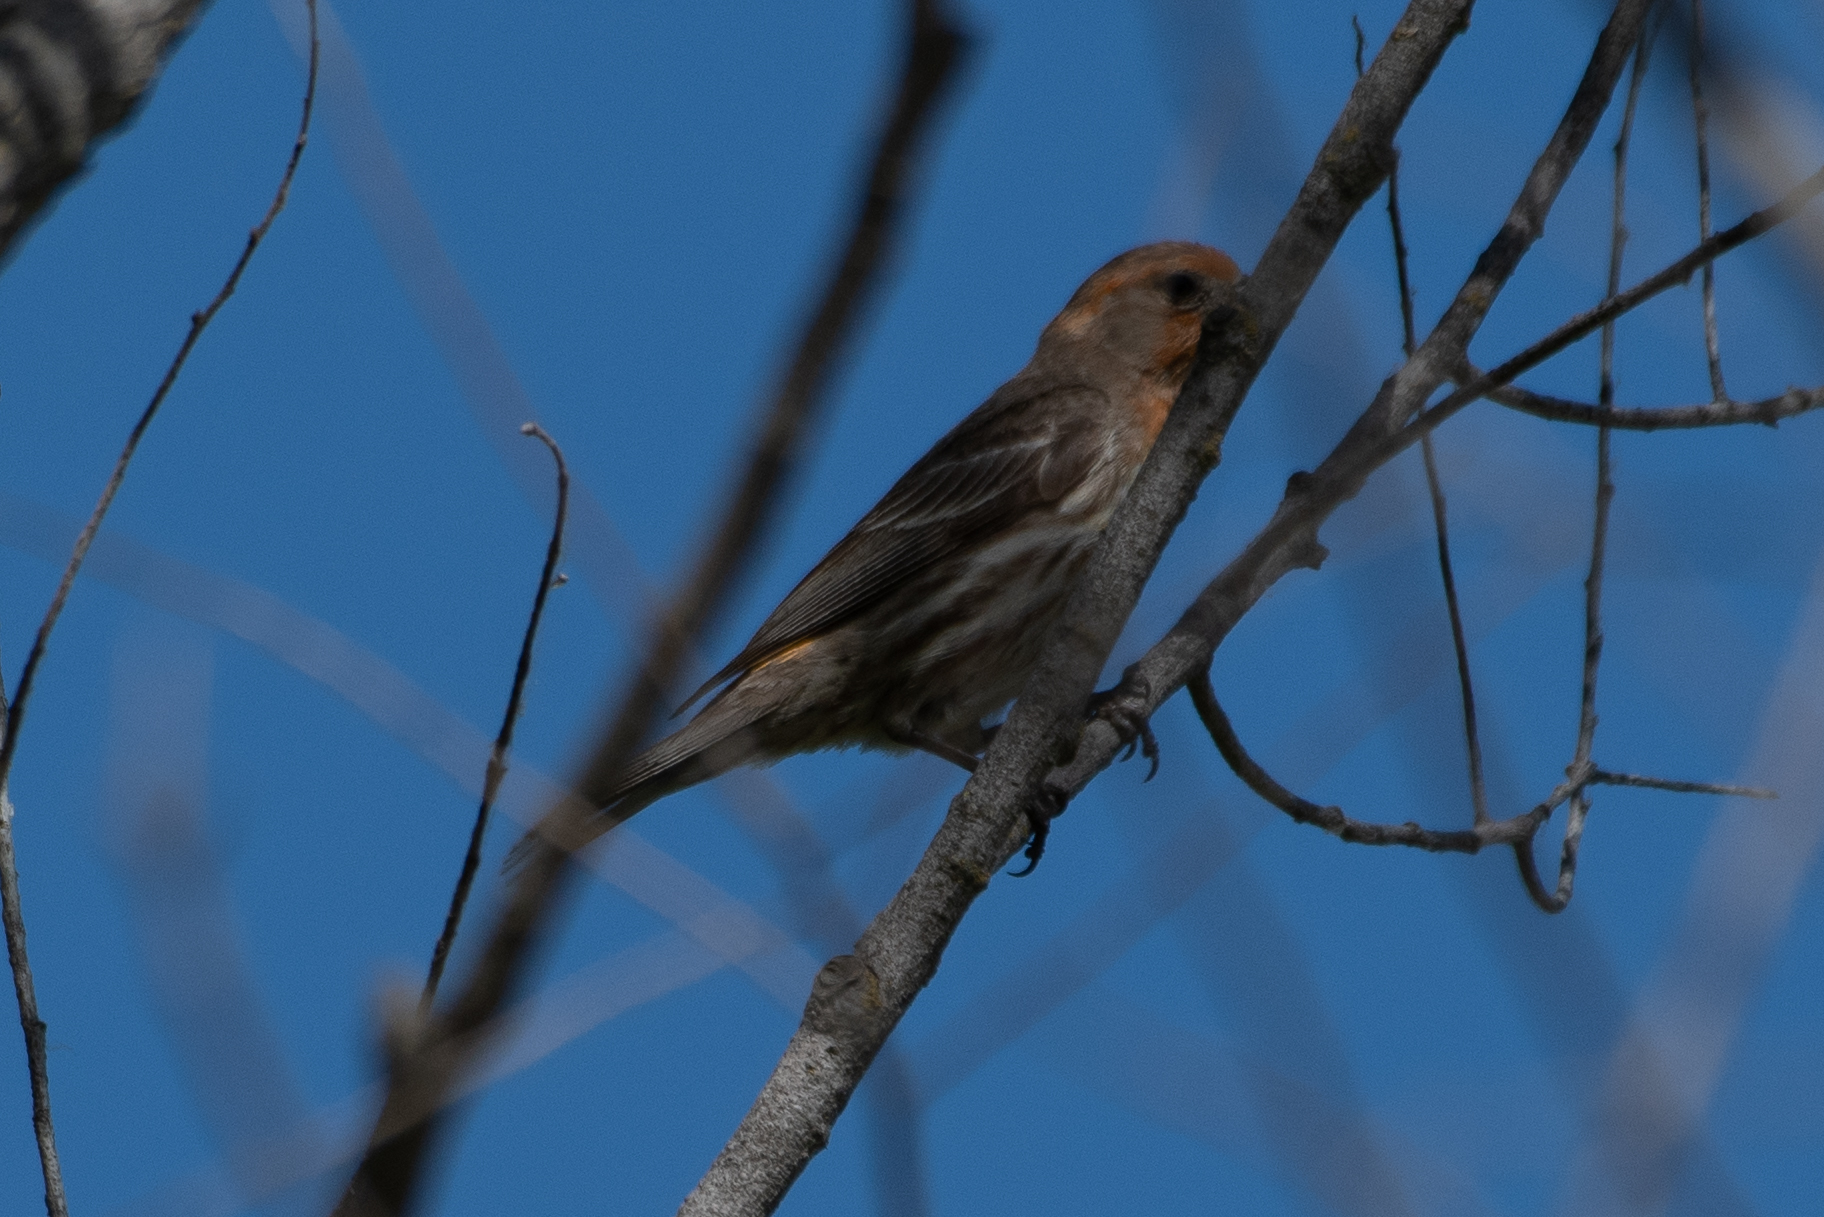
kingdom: Animalia
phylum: Chordata
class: Aves
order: Passeriformes
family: Fringillidae
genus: Haemorhous
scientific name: Haemorhous mexicanus
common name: House finch
